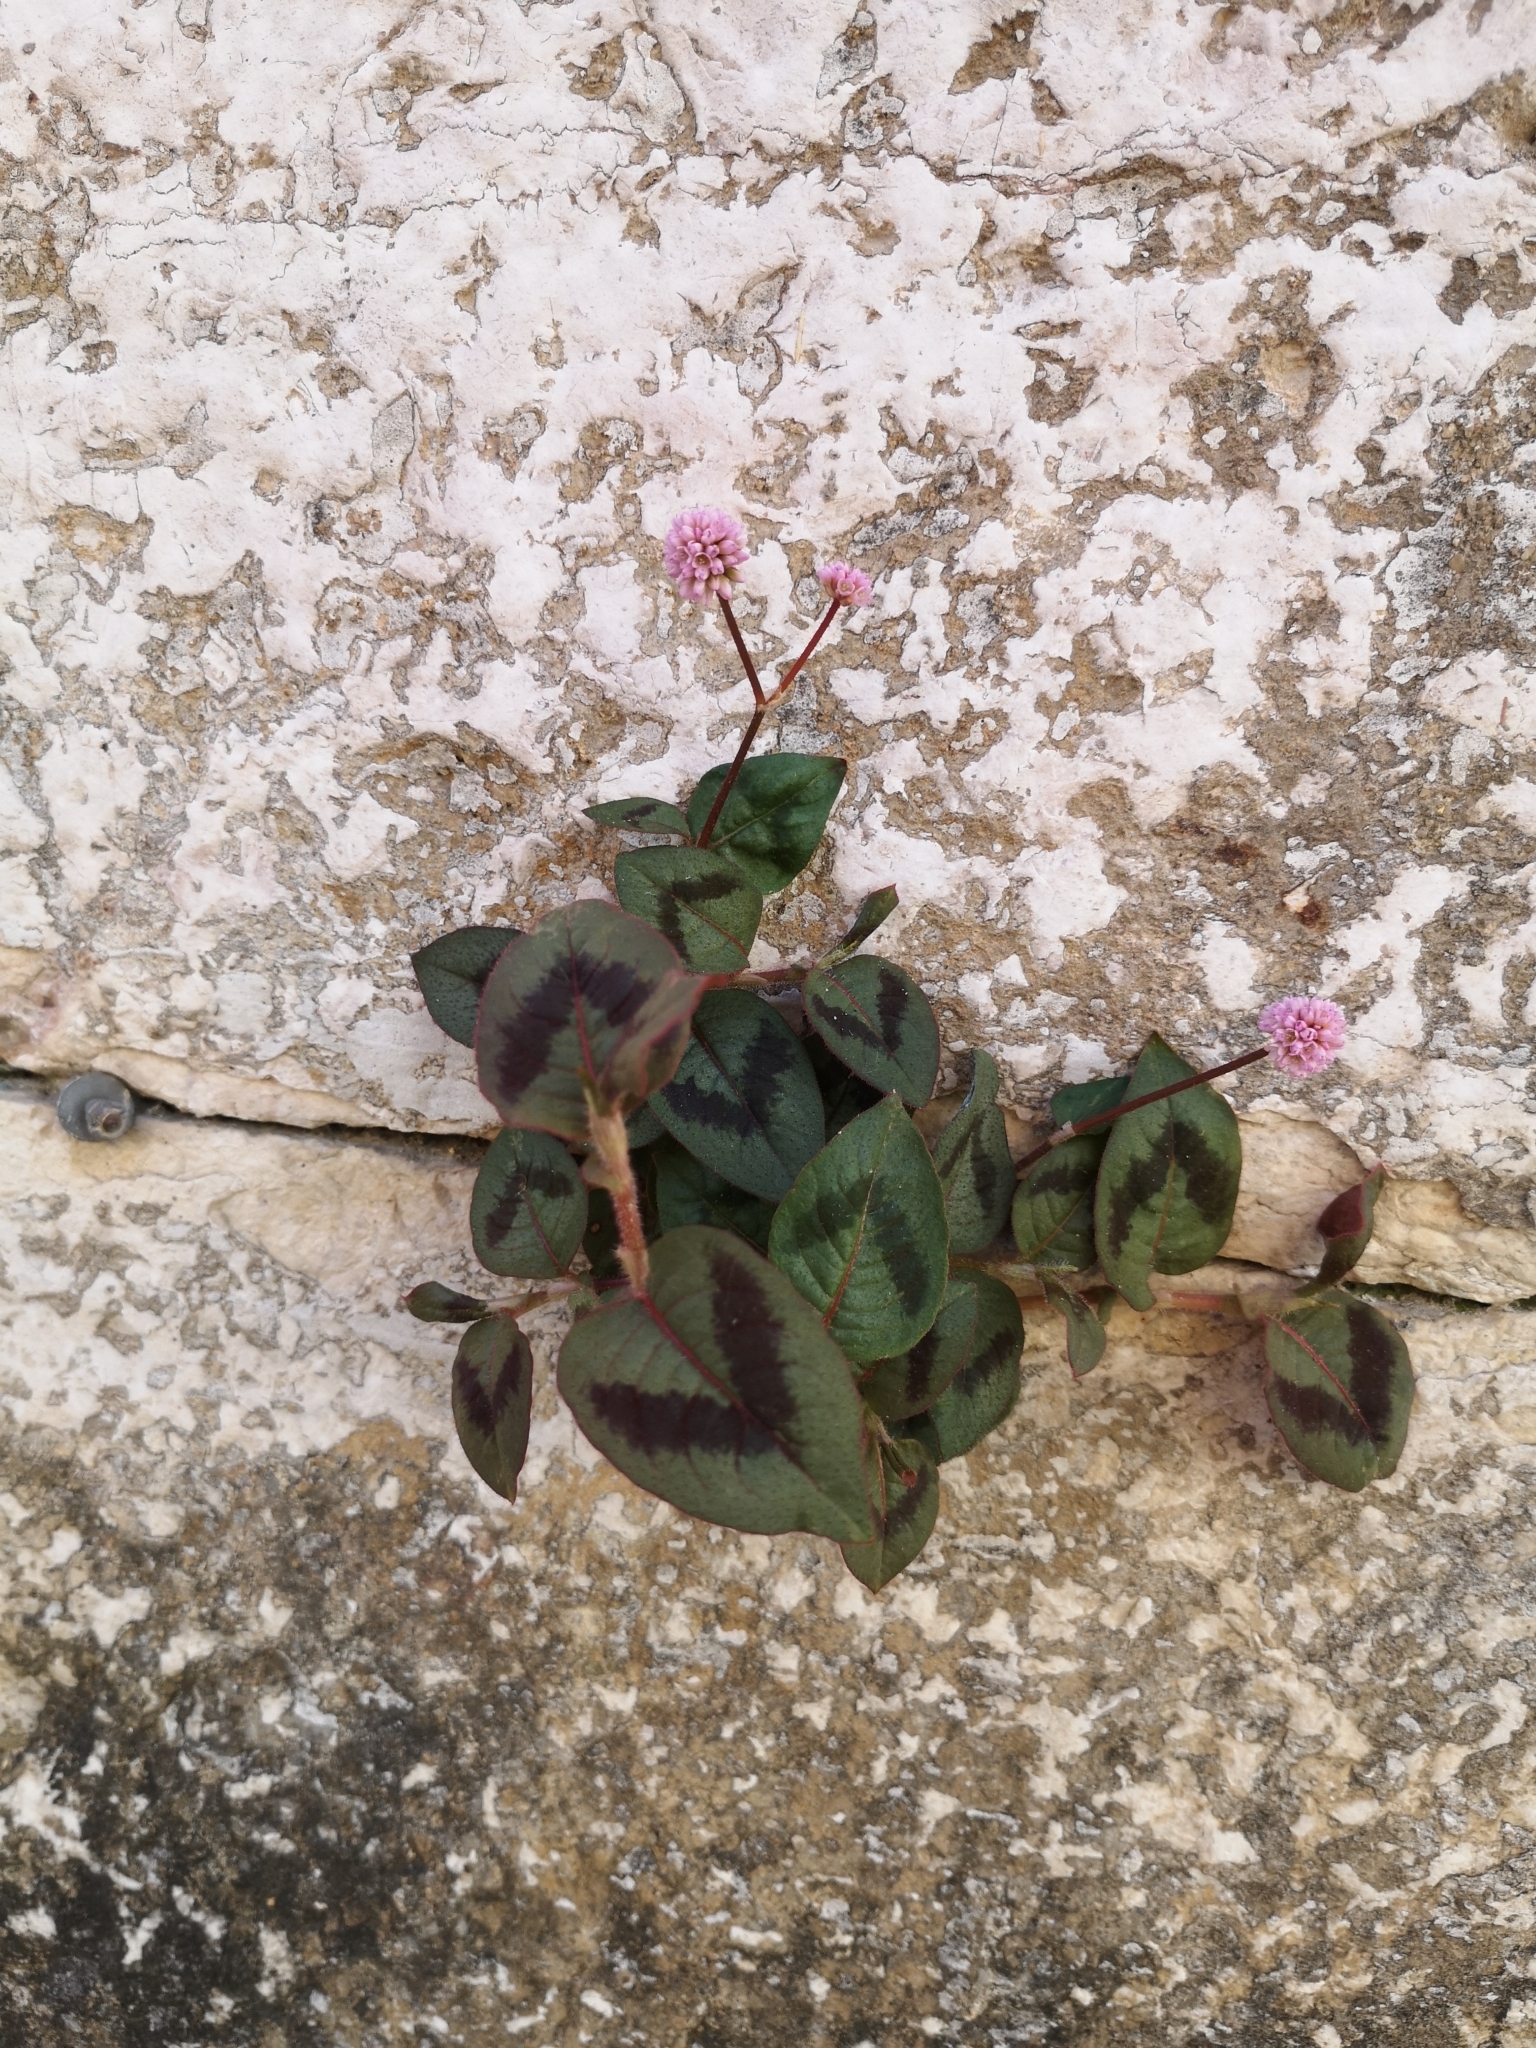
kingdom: Plantae
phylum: Tracheophyta
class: Magnoliopsida
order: Caryophyllales
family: Polygonaceae
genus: Persicaria
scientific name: Persicaria capitata
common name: Pinkhead smartweed
